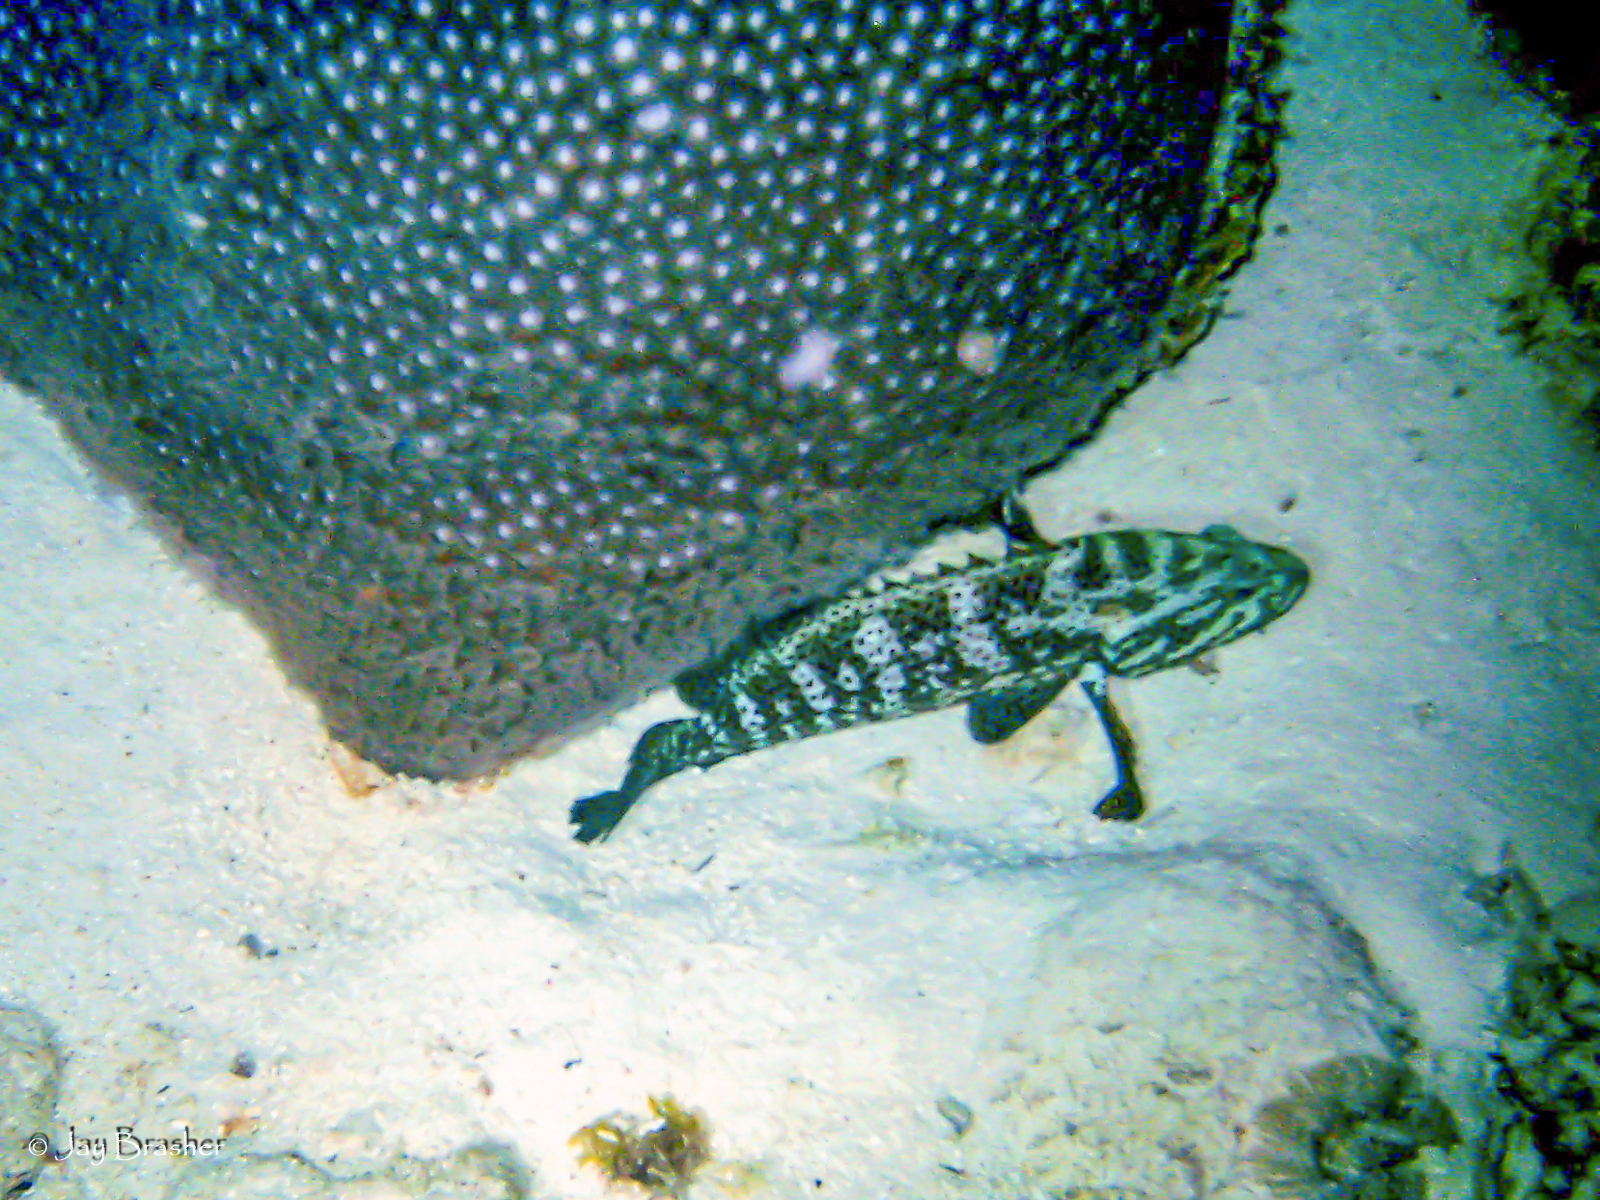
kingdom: Animalia
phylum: Chordata
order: Perciformes
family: Serranidae
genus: Cephalopholis
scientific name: Cephalopholis cruentata
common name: Graysby
